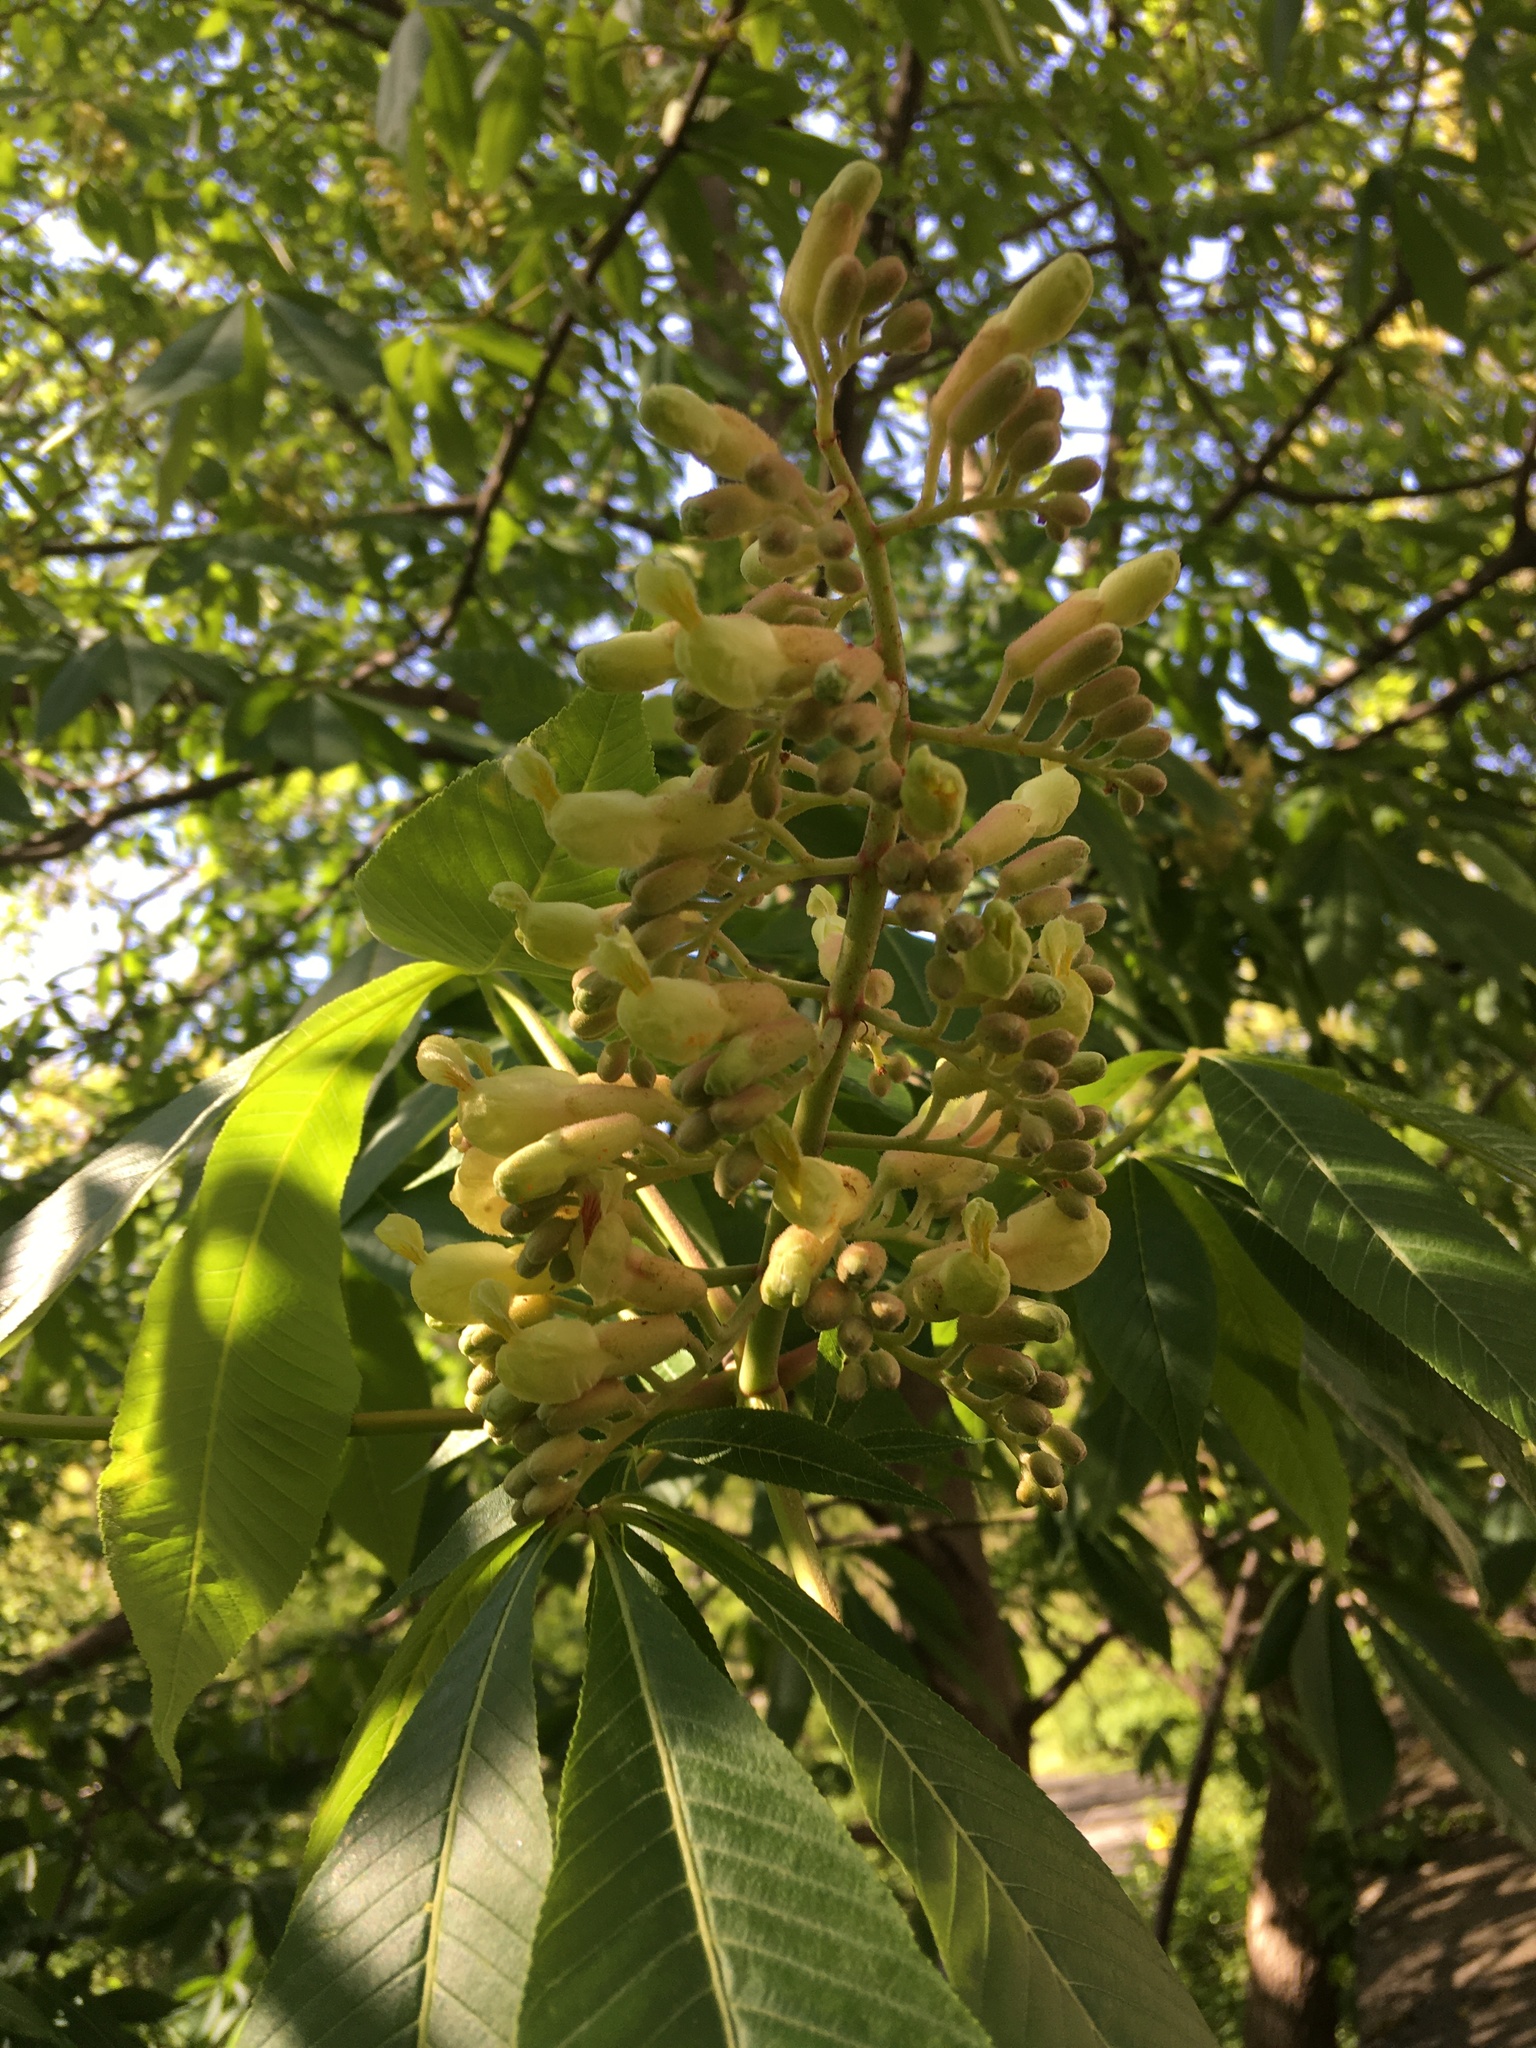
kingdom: Plantae
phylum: Tracheophyta
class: Magnoliopsida
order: Sapindales
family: Sapindaceae
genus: Aesculus
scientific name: Aesculus flava
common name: Yellow buckeye
